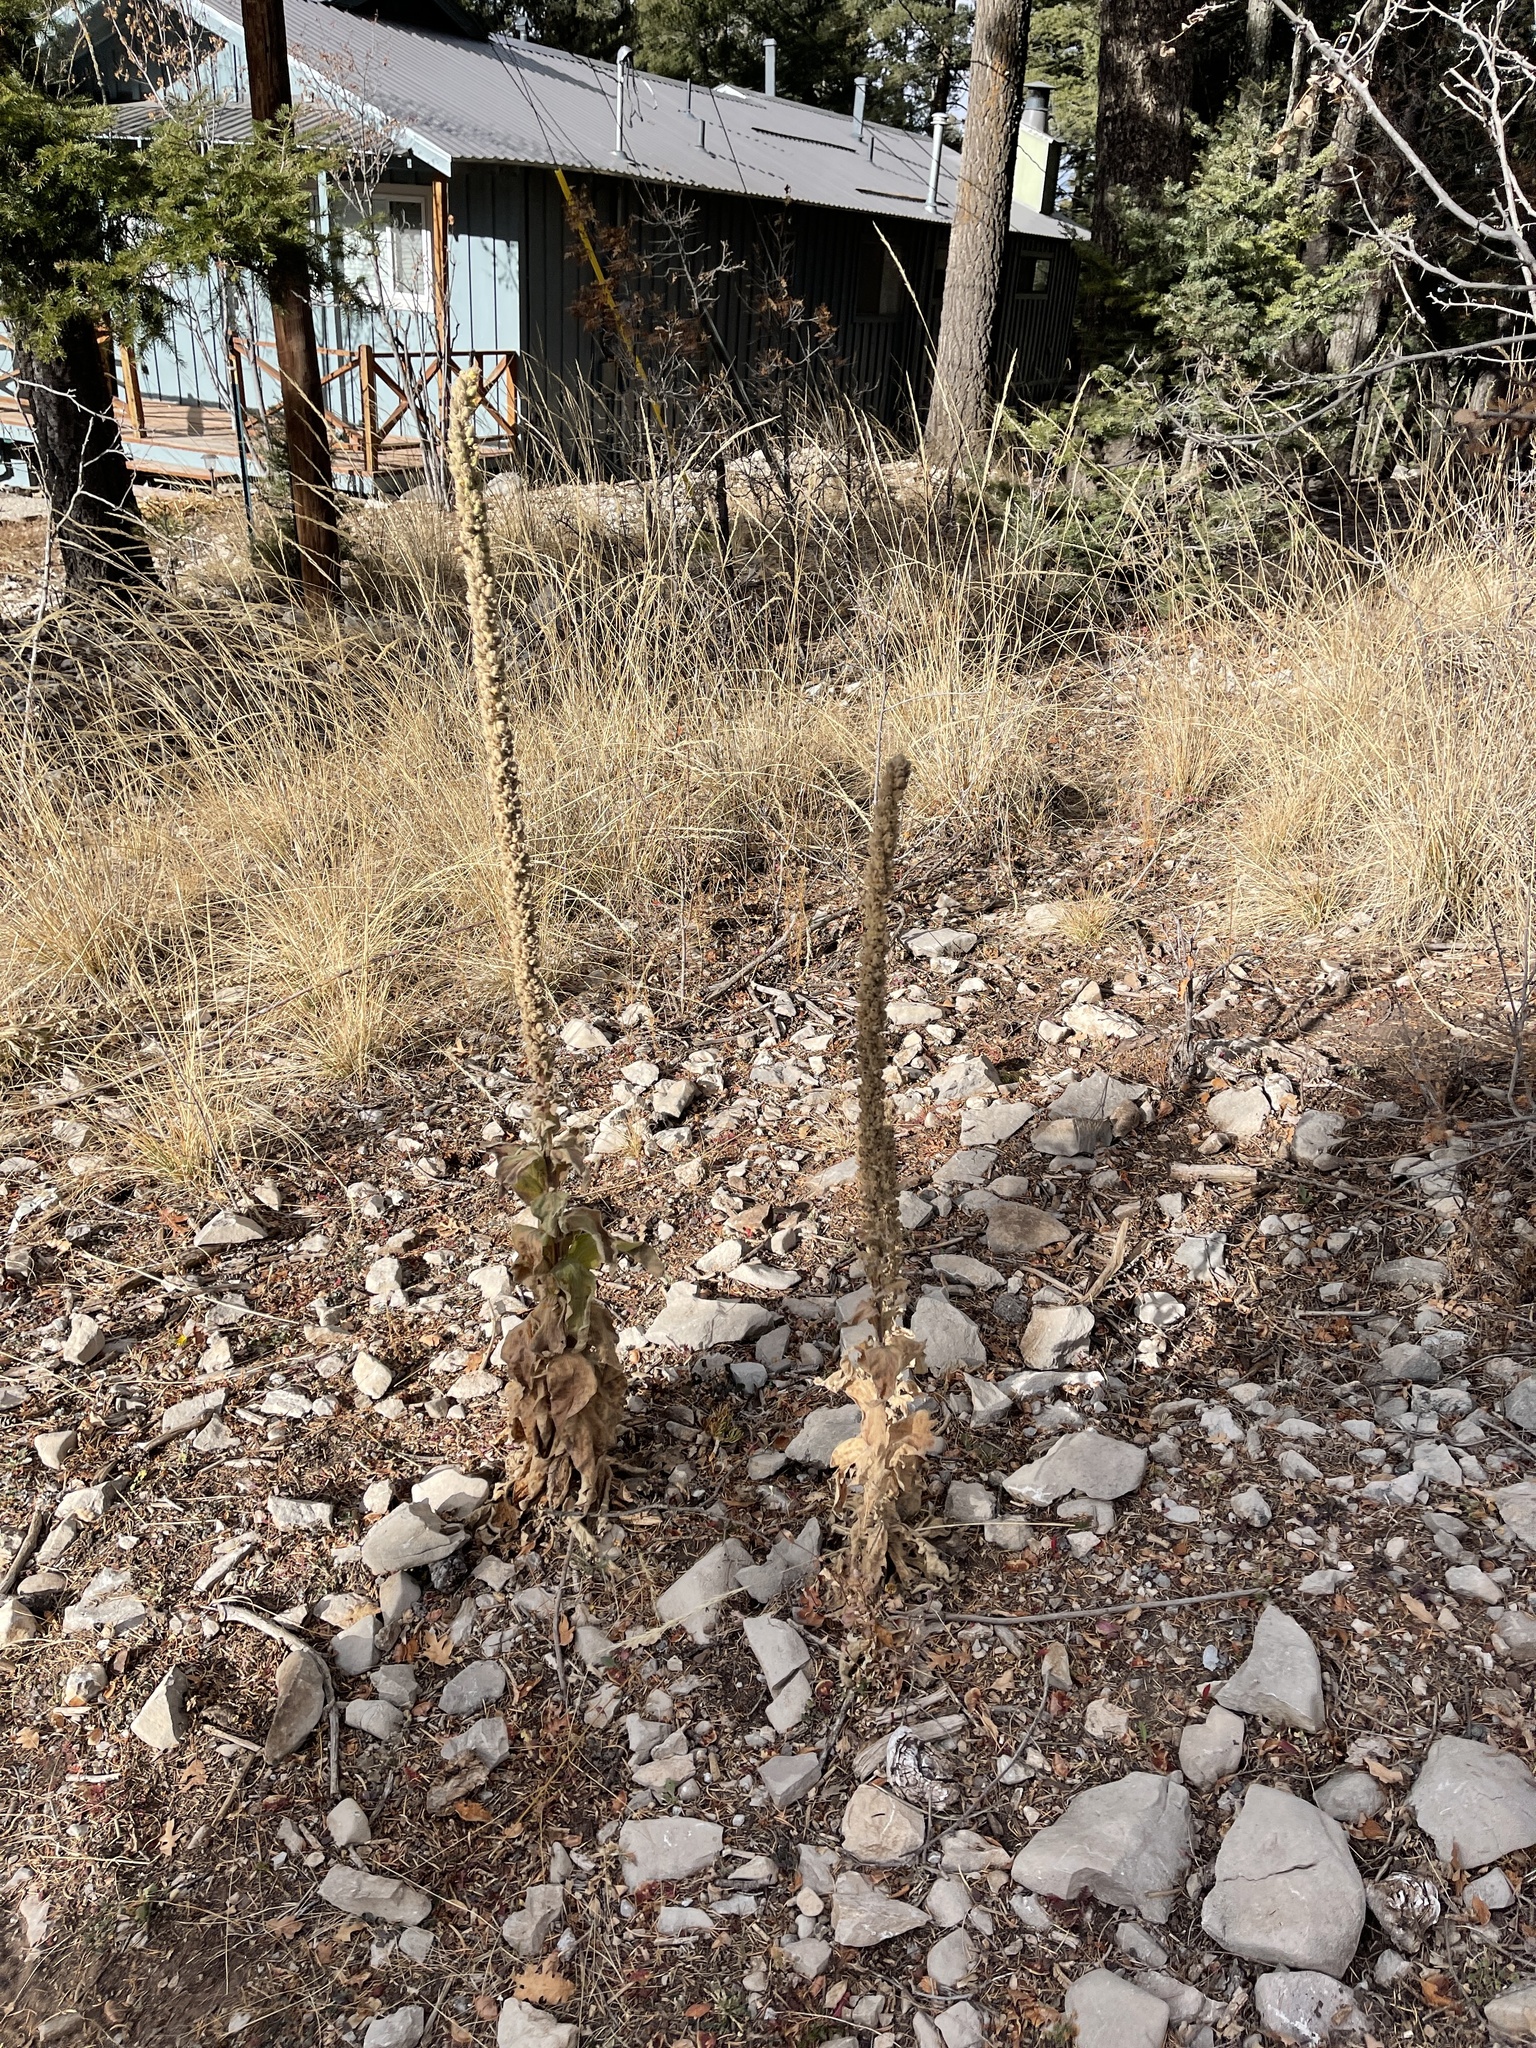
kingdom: Plantae
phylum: Tracheophyta
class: Magnoliopsida
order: Lamiales
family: Scrophulariaceae
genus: Verbascum
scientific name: Verbascum thapsus
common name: Common mullein
